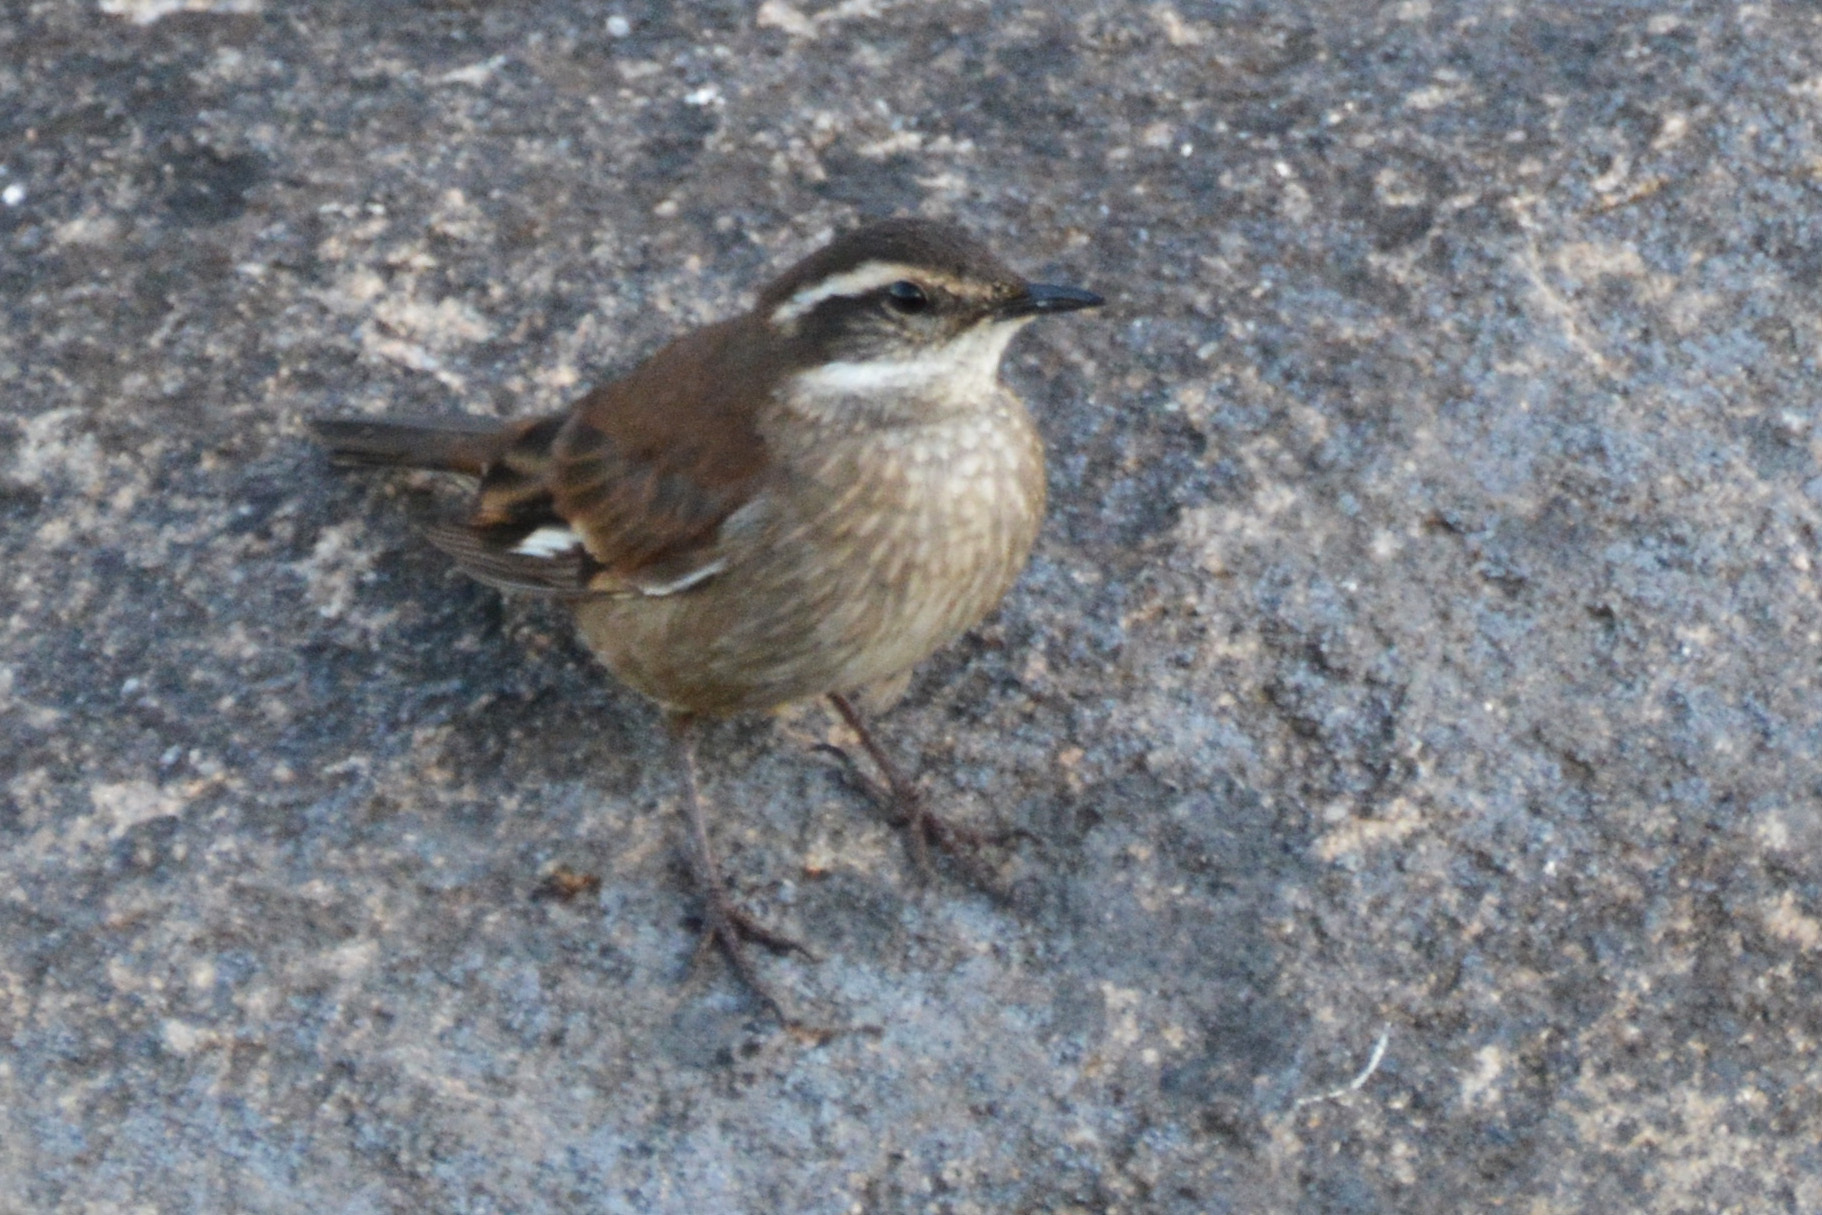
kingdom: Animalia
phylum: Chordata
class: Aves
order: Passeriformes
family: Furnariidae
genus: Cinclodes
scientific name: Cinclodes olrogi
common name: Olrog's cinclodes
